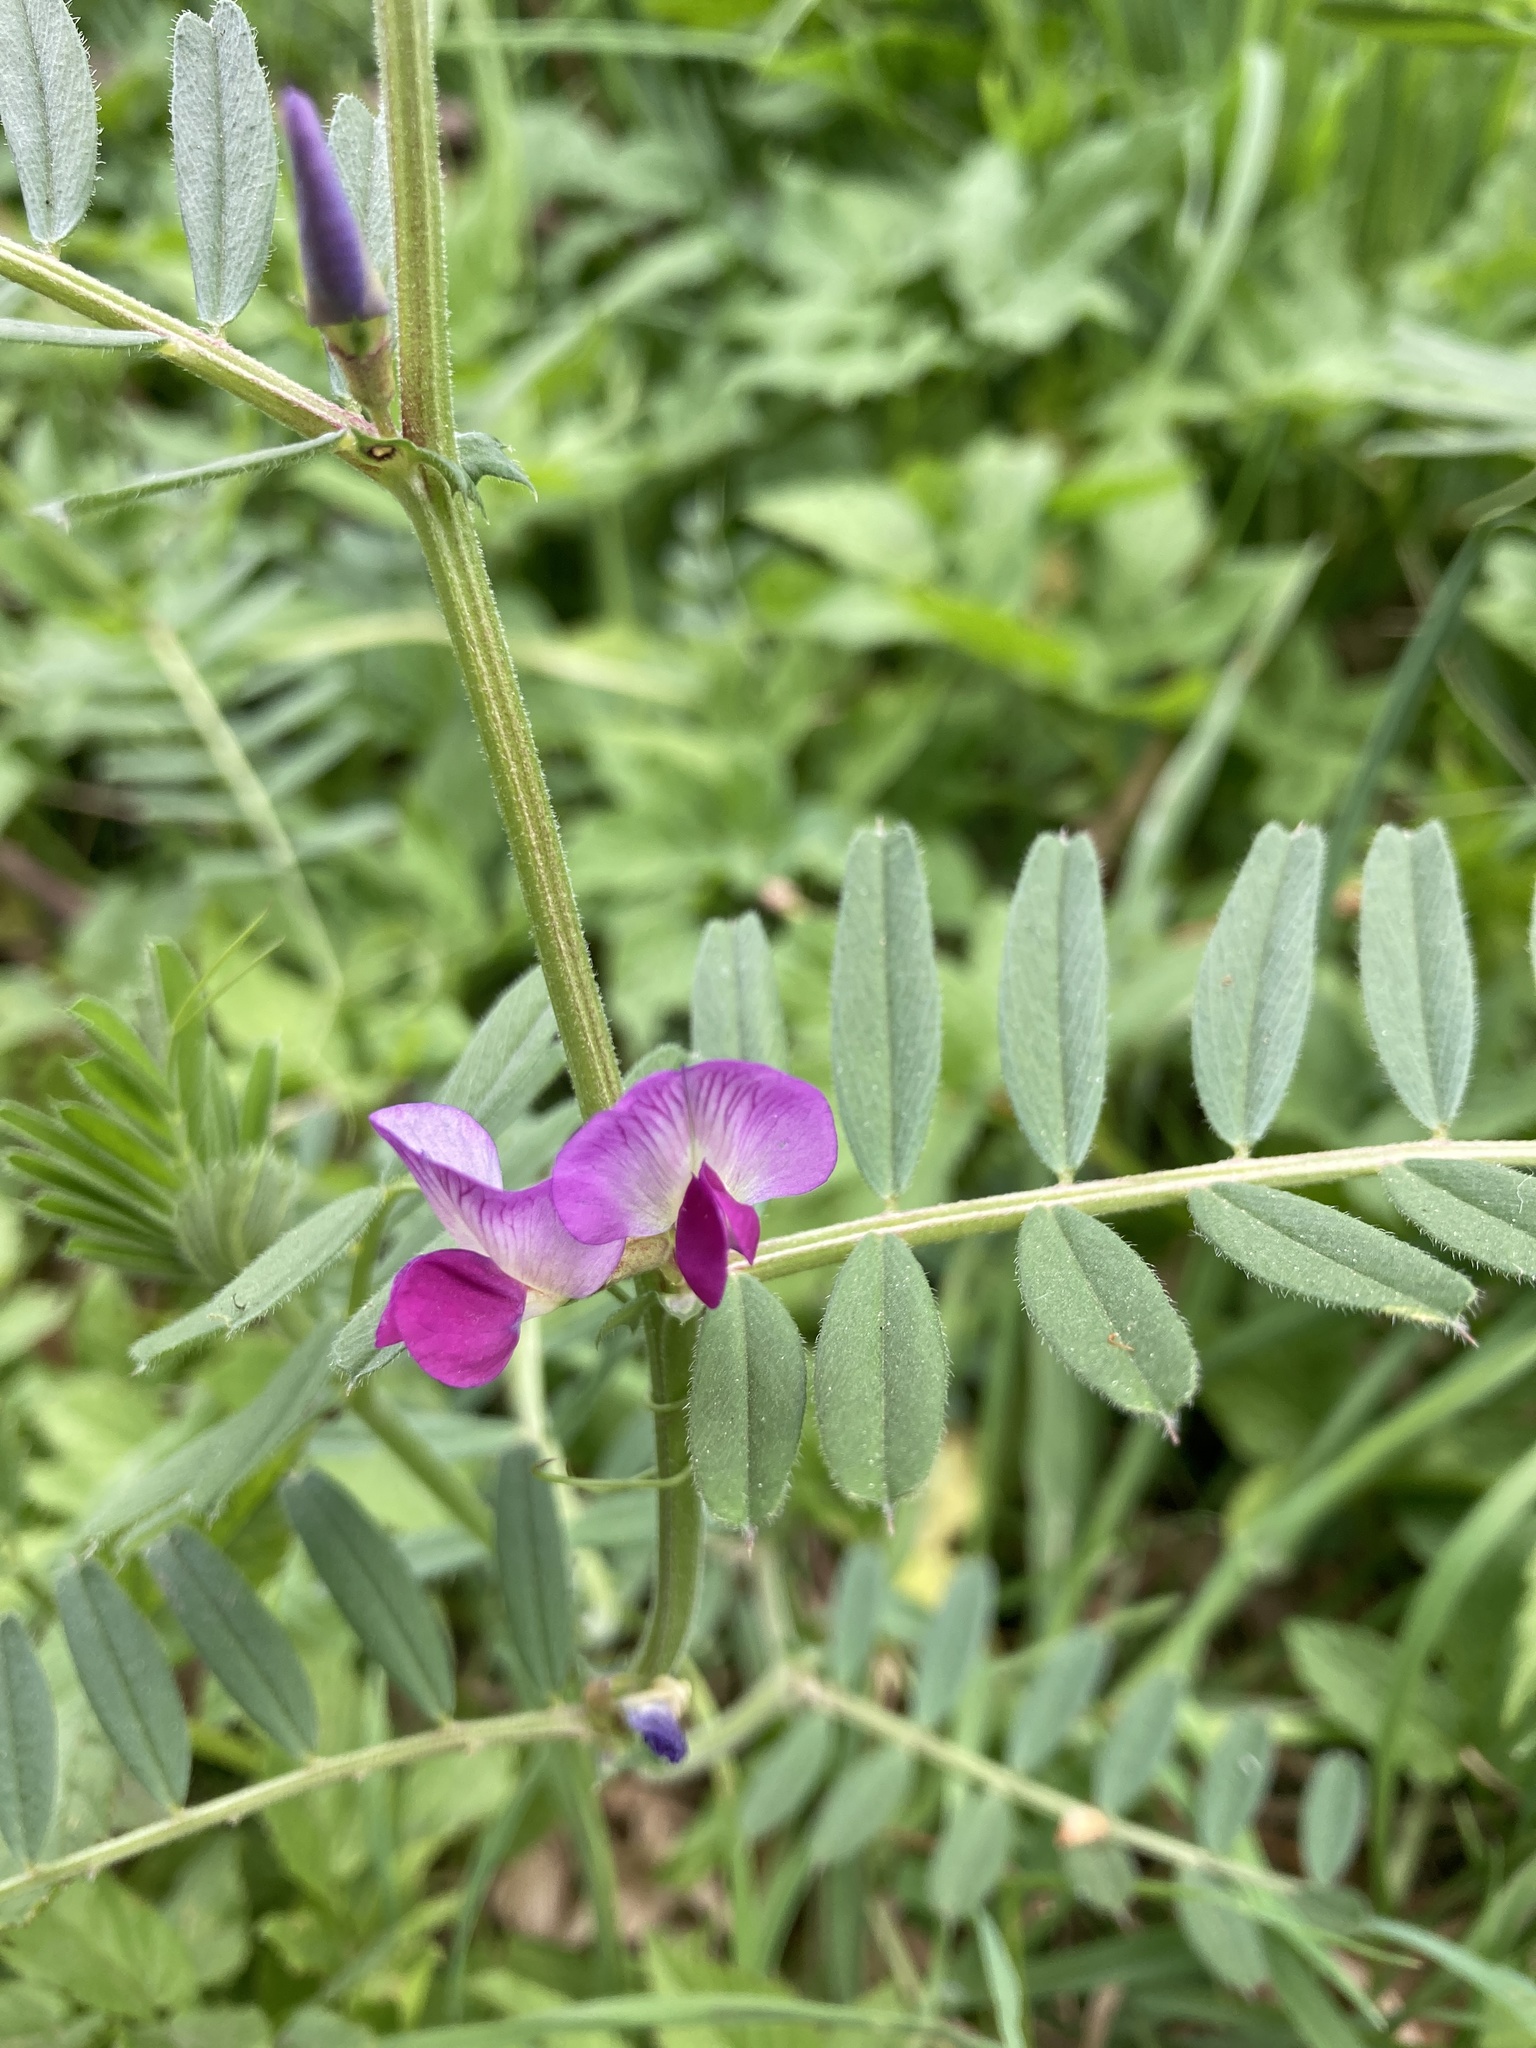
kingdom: Plantae
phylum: Tracheophyta
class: Magnoliopsida
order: Fabales
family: Fabaceae
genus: Vicia
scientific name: Vicia sativa
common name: Garden vetch
